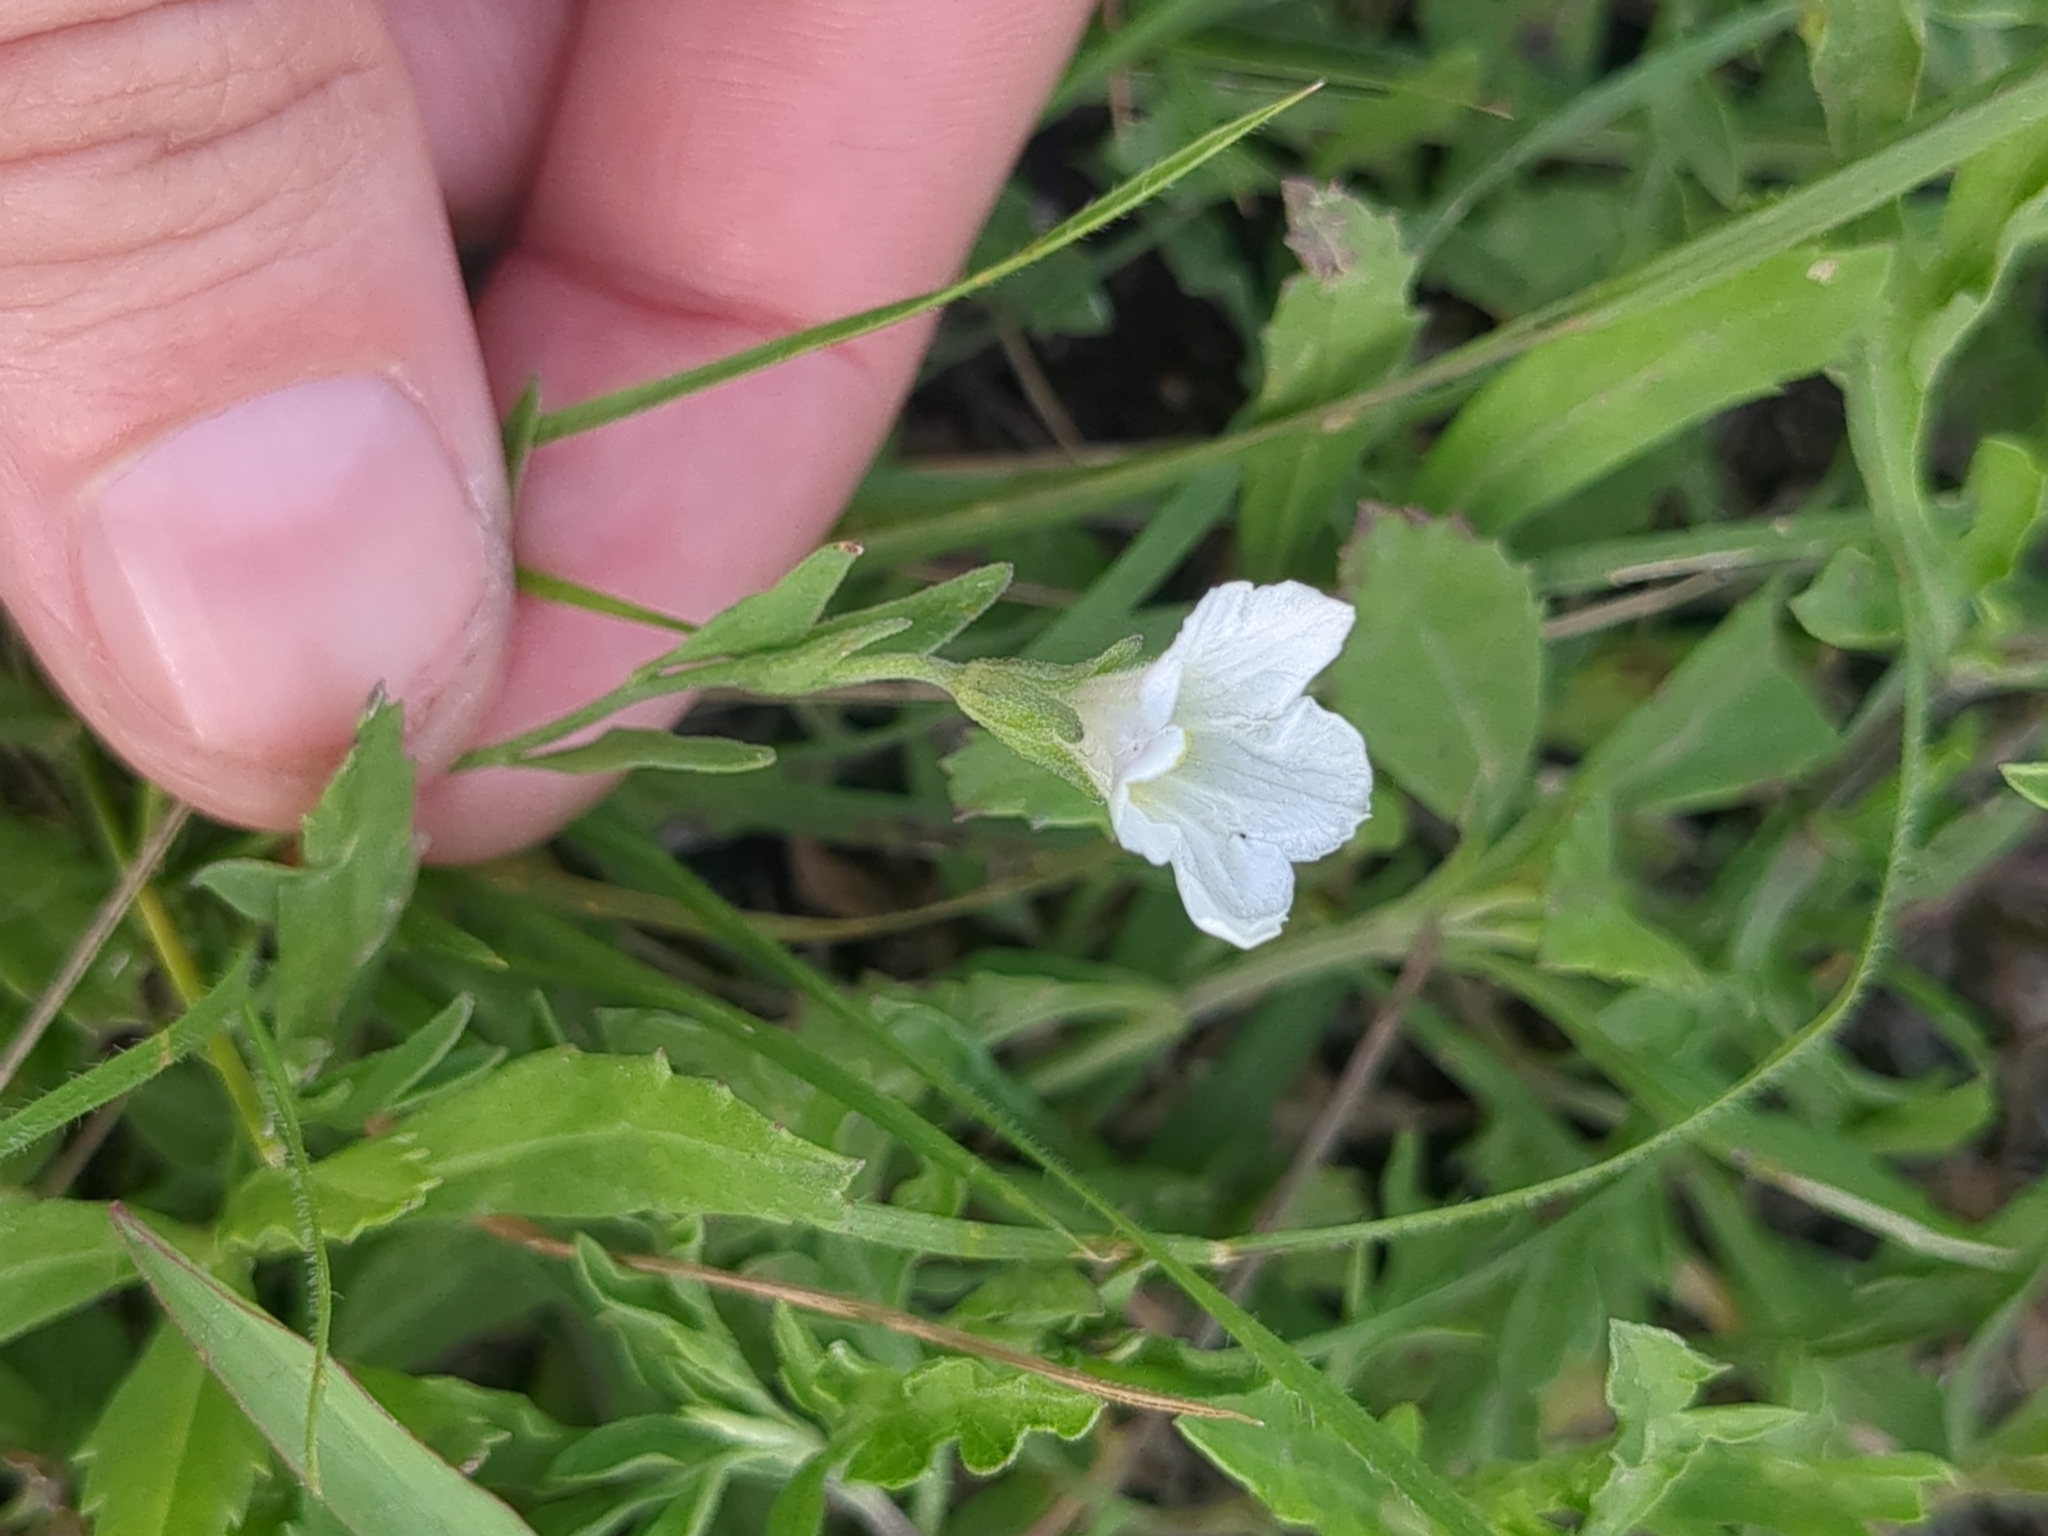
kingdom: Plantae
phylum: Tracheophyta
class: Magnoliopsida
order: Solanales
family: Solanaceae
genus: Salpiglossis
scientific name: Salpiglossis erecta
